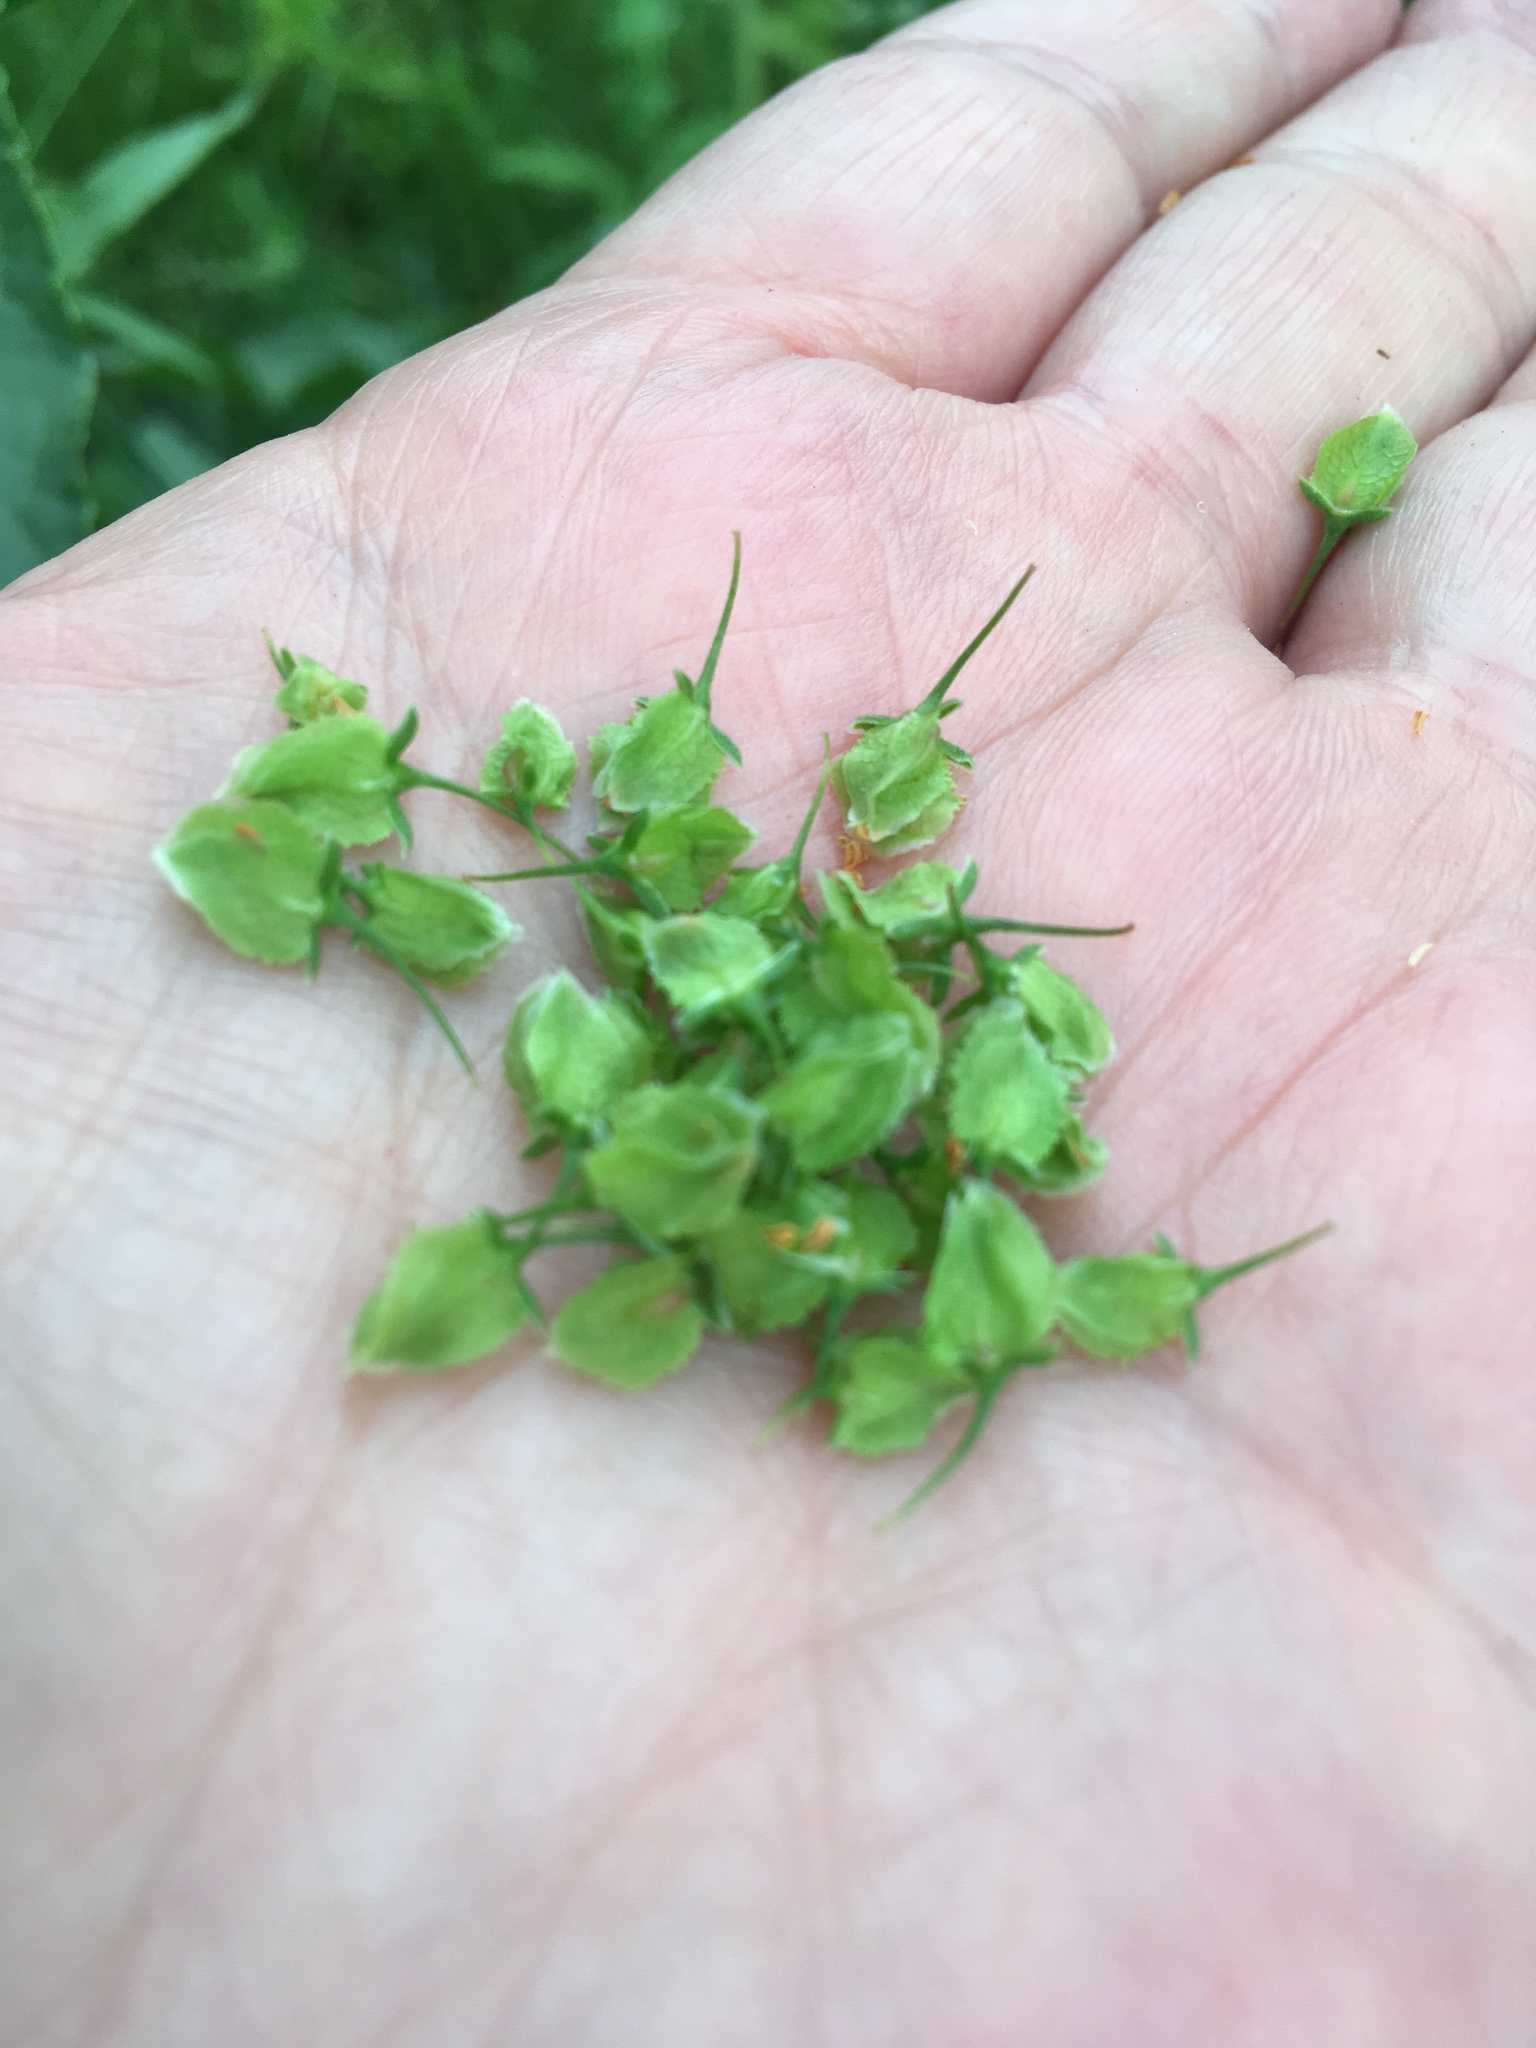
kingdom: Plantae
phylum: Tracheophyta
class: Magnoliopsida
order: Caryophyllales
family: Polygonaceae
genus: Rumex
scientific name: Rumex kerneri
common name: Kerner's dock
